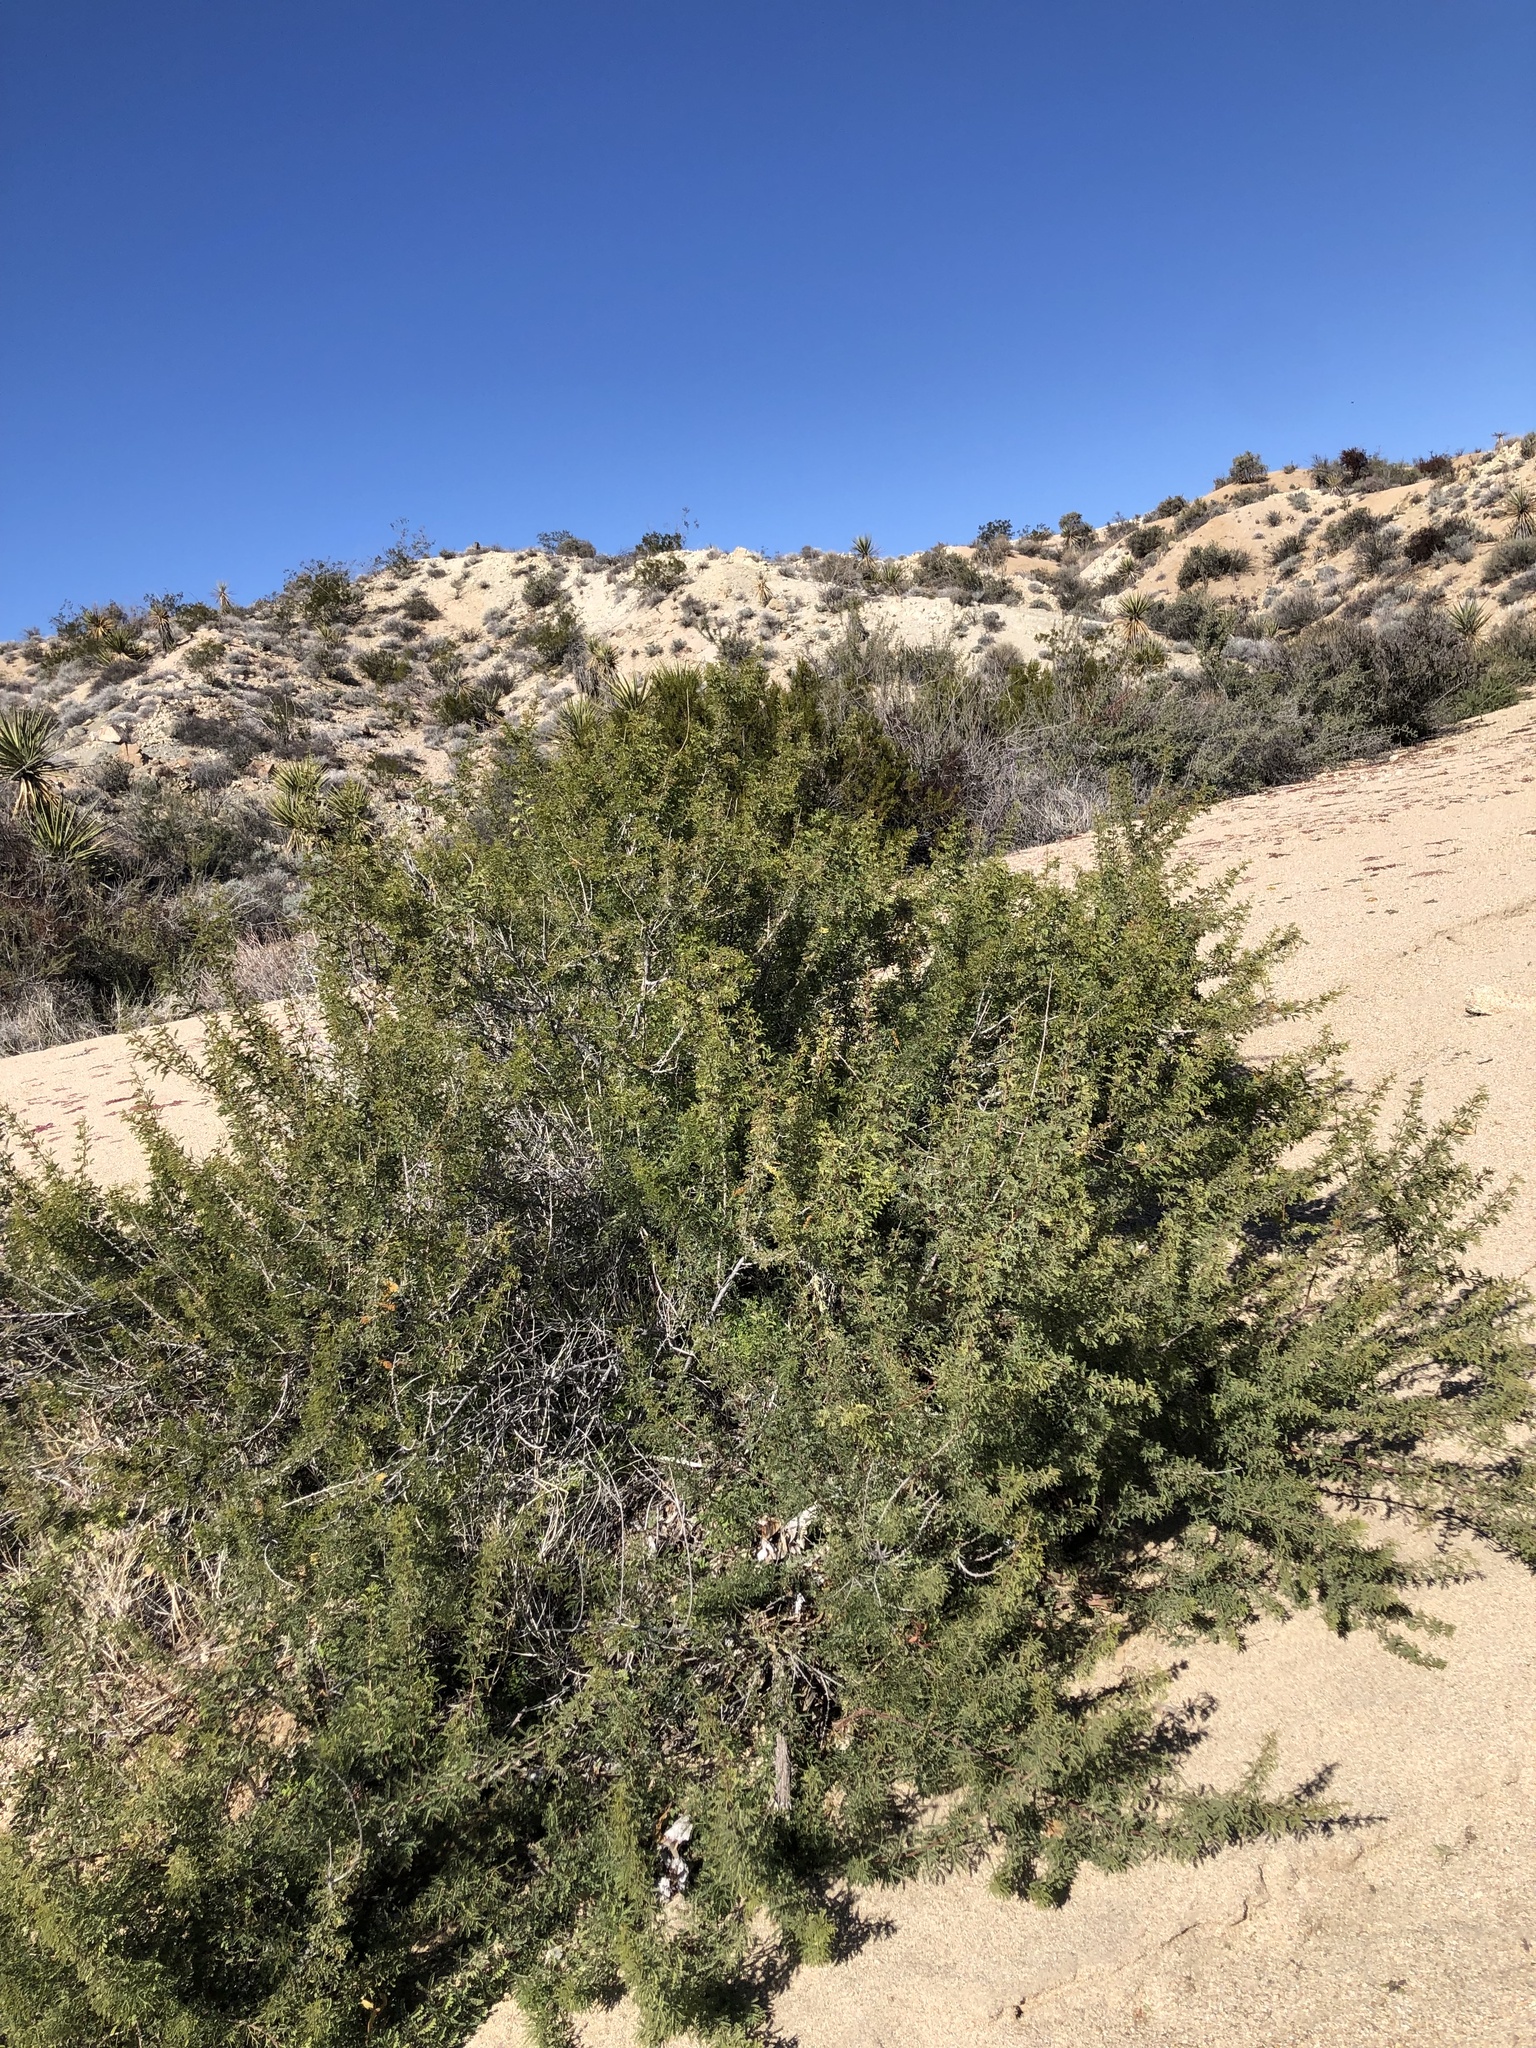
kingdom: Plantae
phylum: Tracheophyta
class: Magnoliopsida
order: Fabales
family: Fabaceae
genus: Senegalia
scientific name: Senegalia greggii
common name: Texas-mimosa
